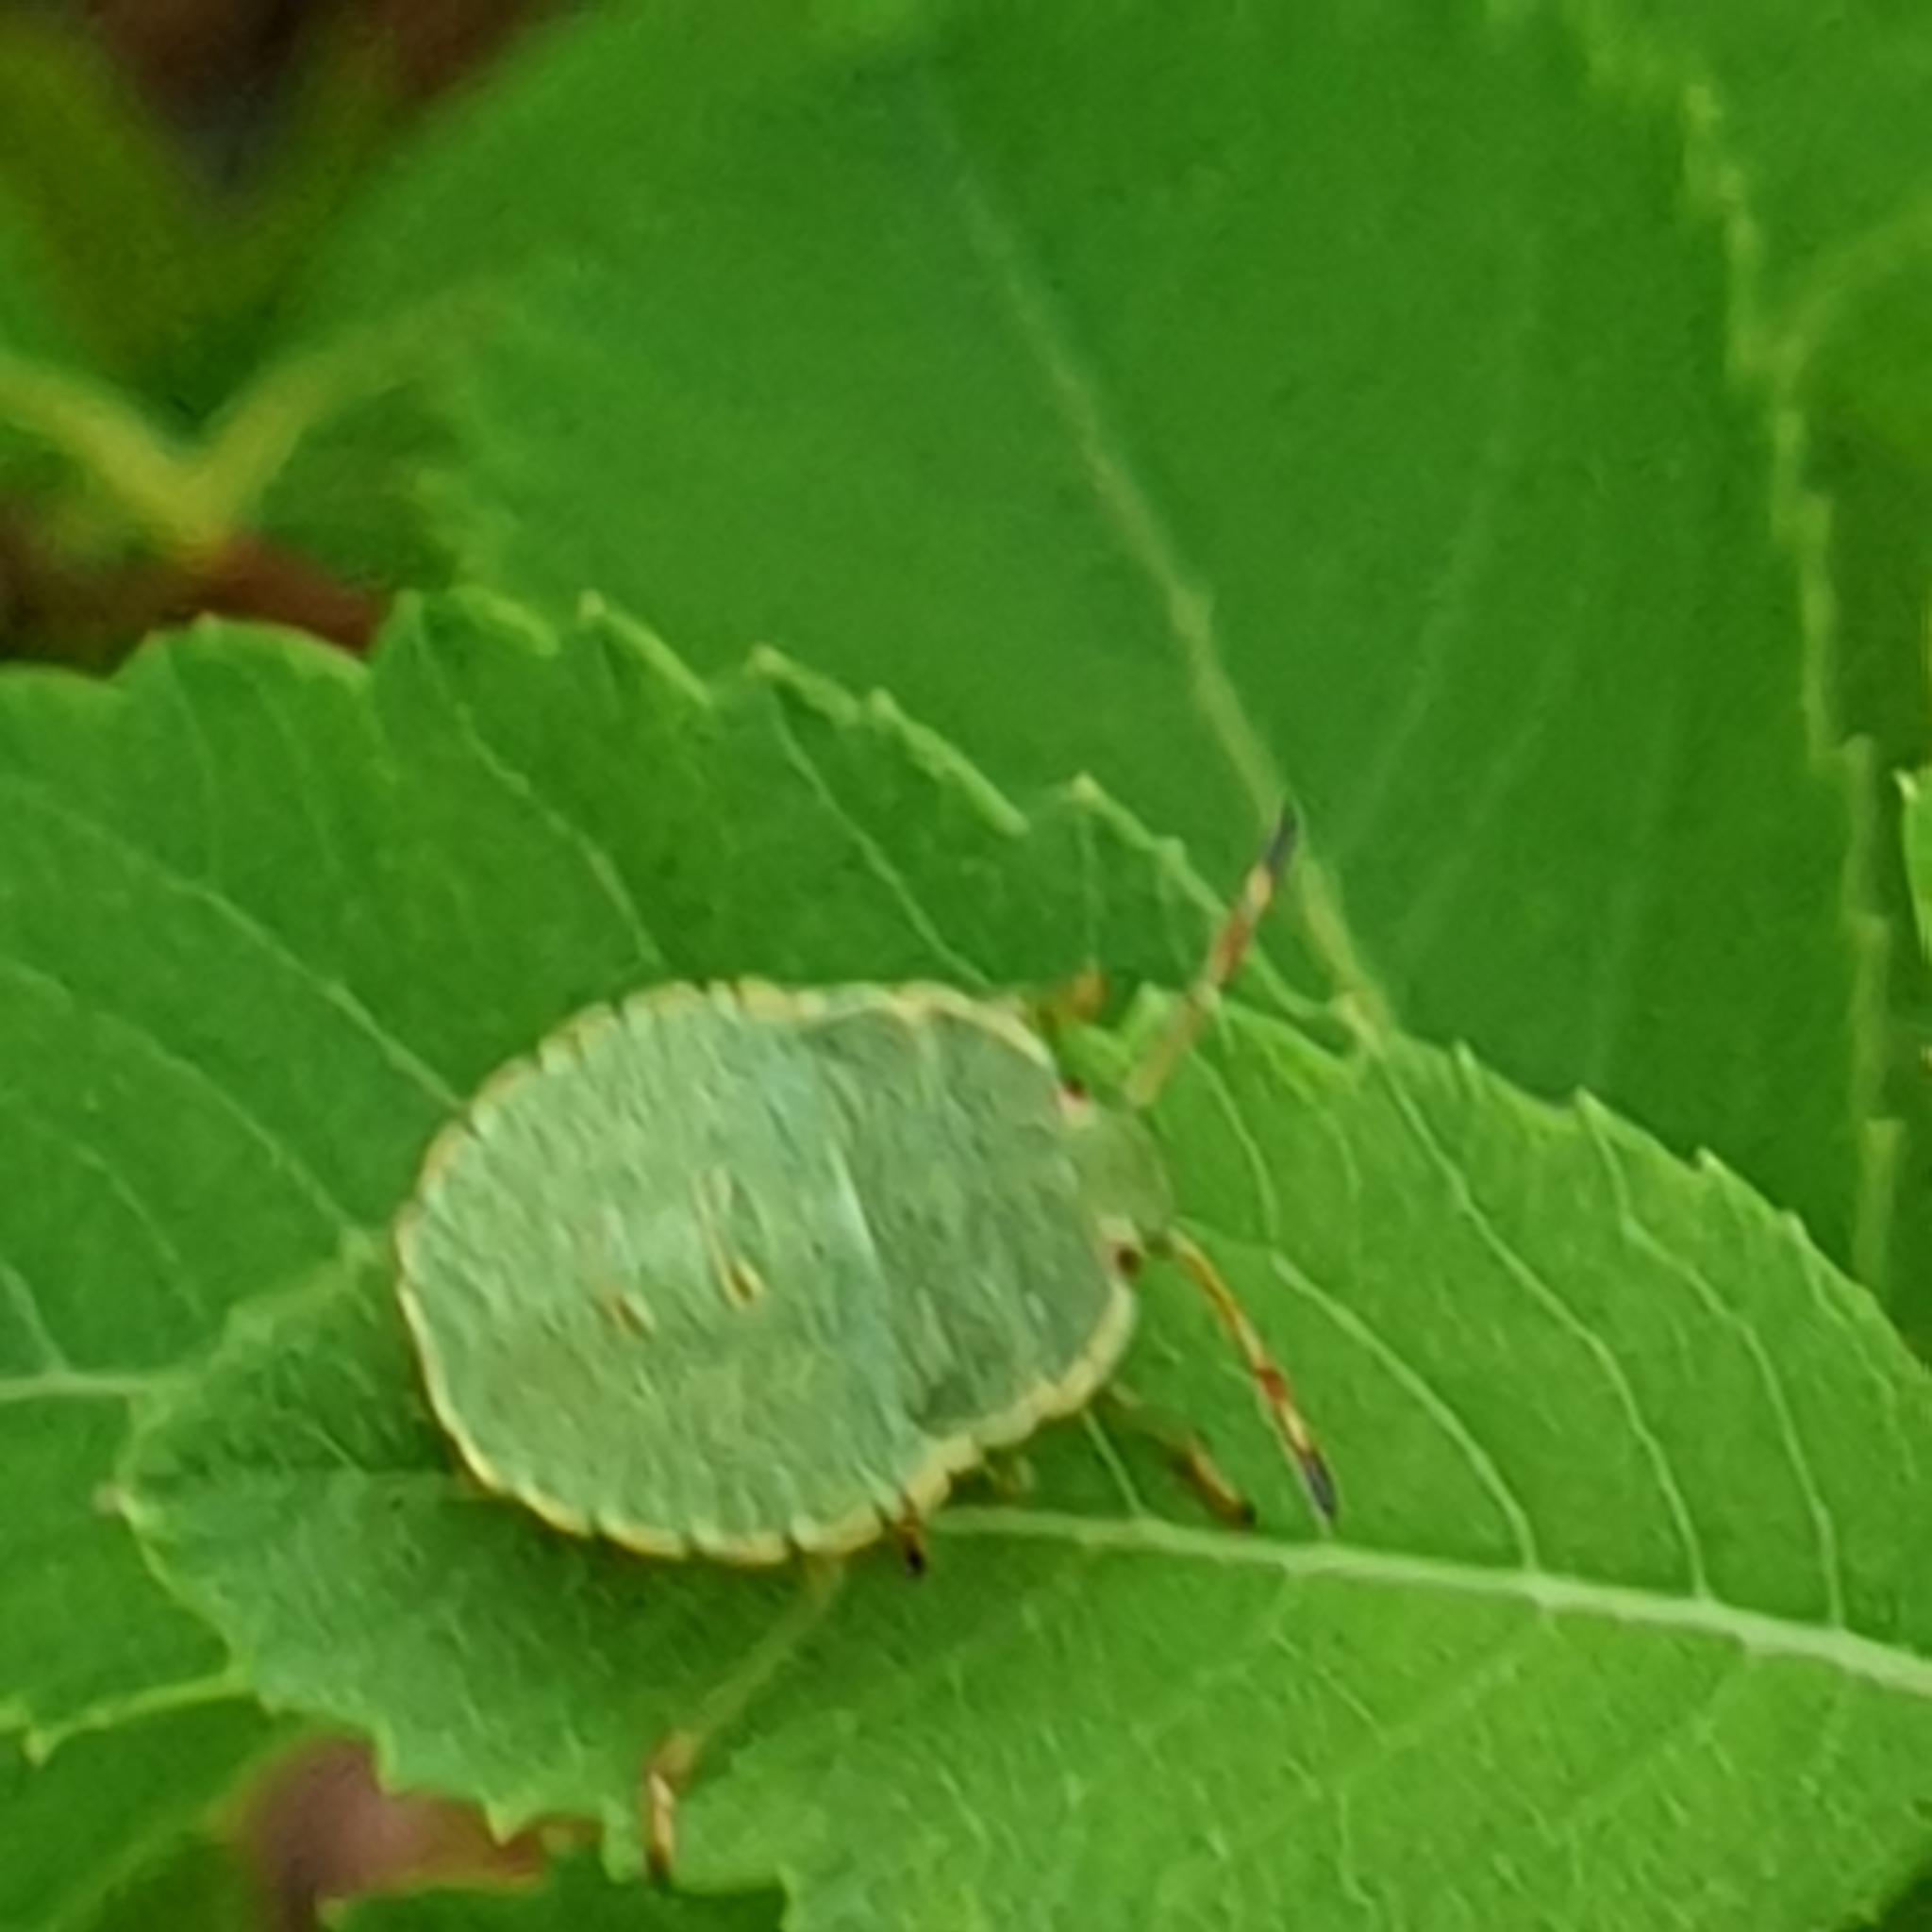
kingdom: Animalia
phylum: Arthropoda
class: Insecta
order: Hemiptera
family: Pentatomidae
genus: Palomena
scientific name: Palomena prasina
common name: Green shieldbug
